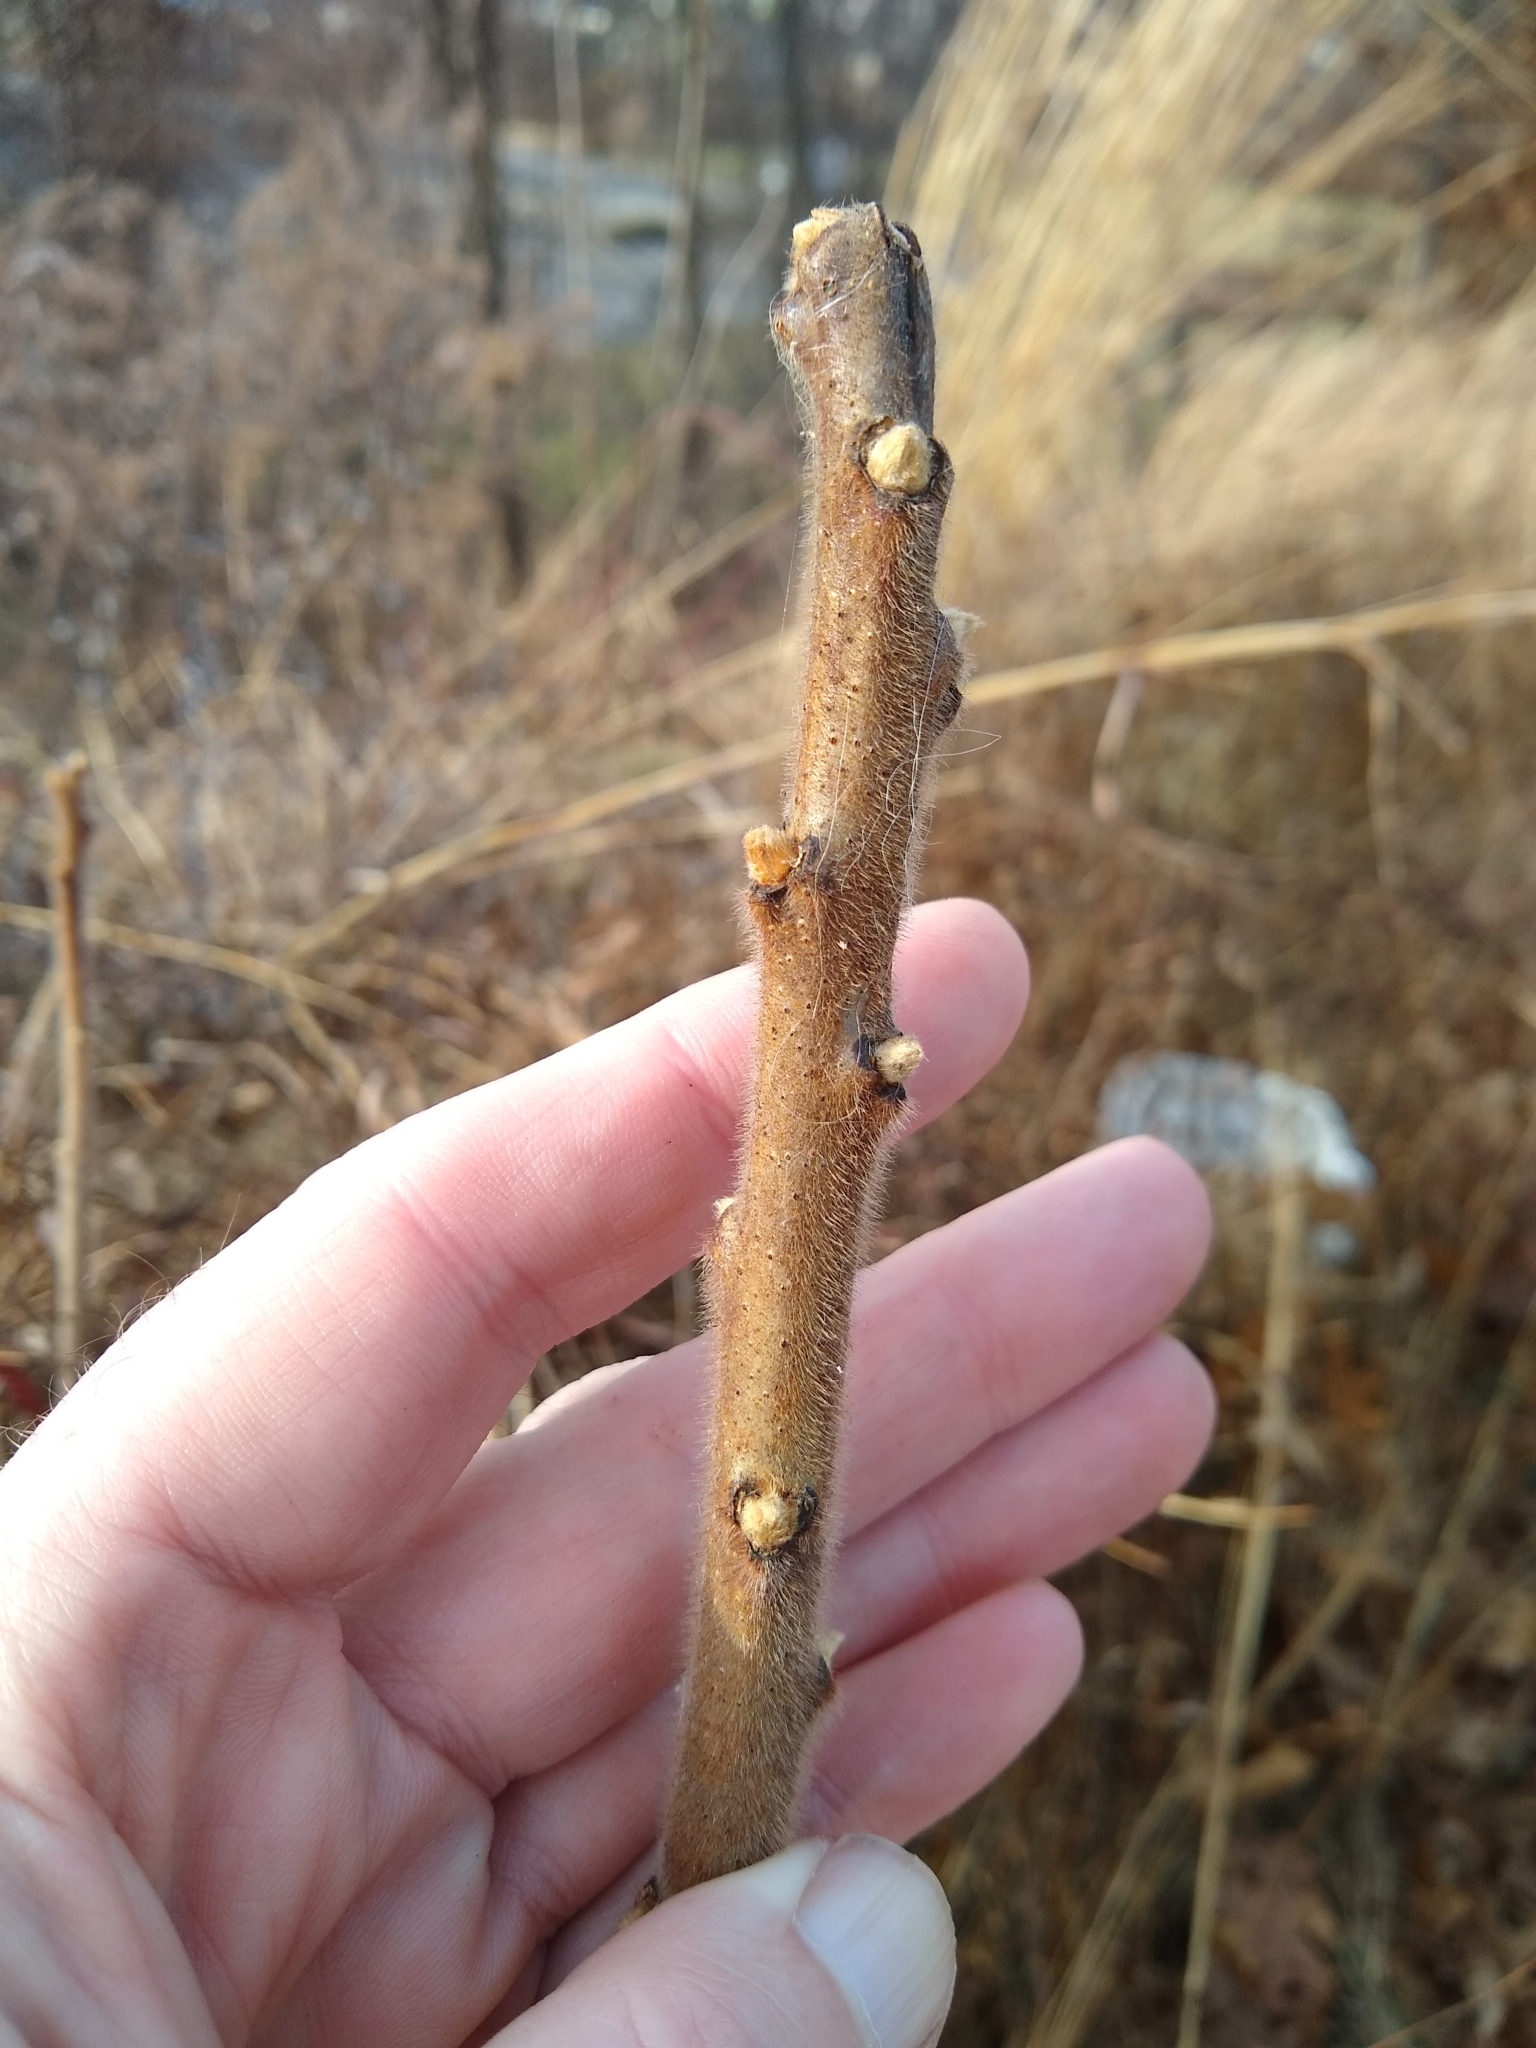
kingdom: Plantae
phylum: Tracheophyta
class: Magnoliopsida
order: Sapindales
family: Anacardiaceae
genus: Rhus
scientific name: Rhus typhina
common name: Staghorn sumac
